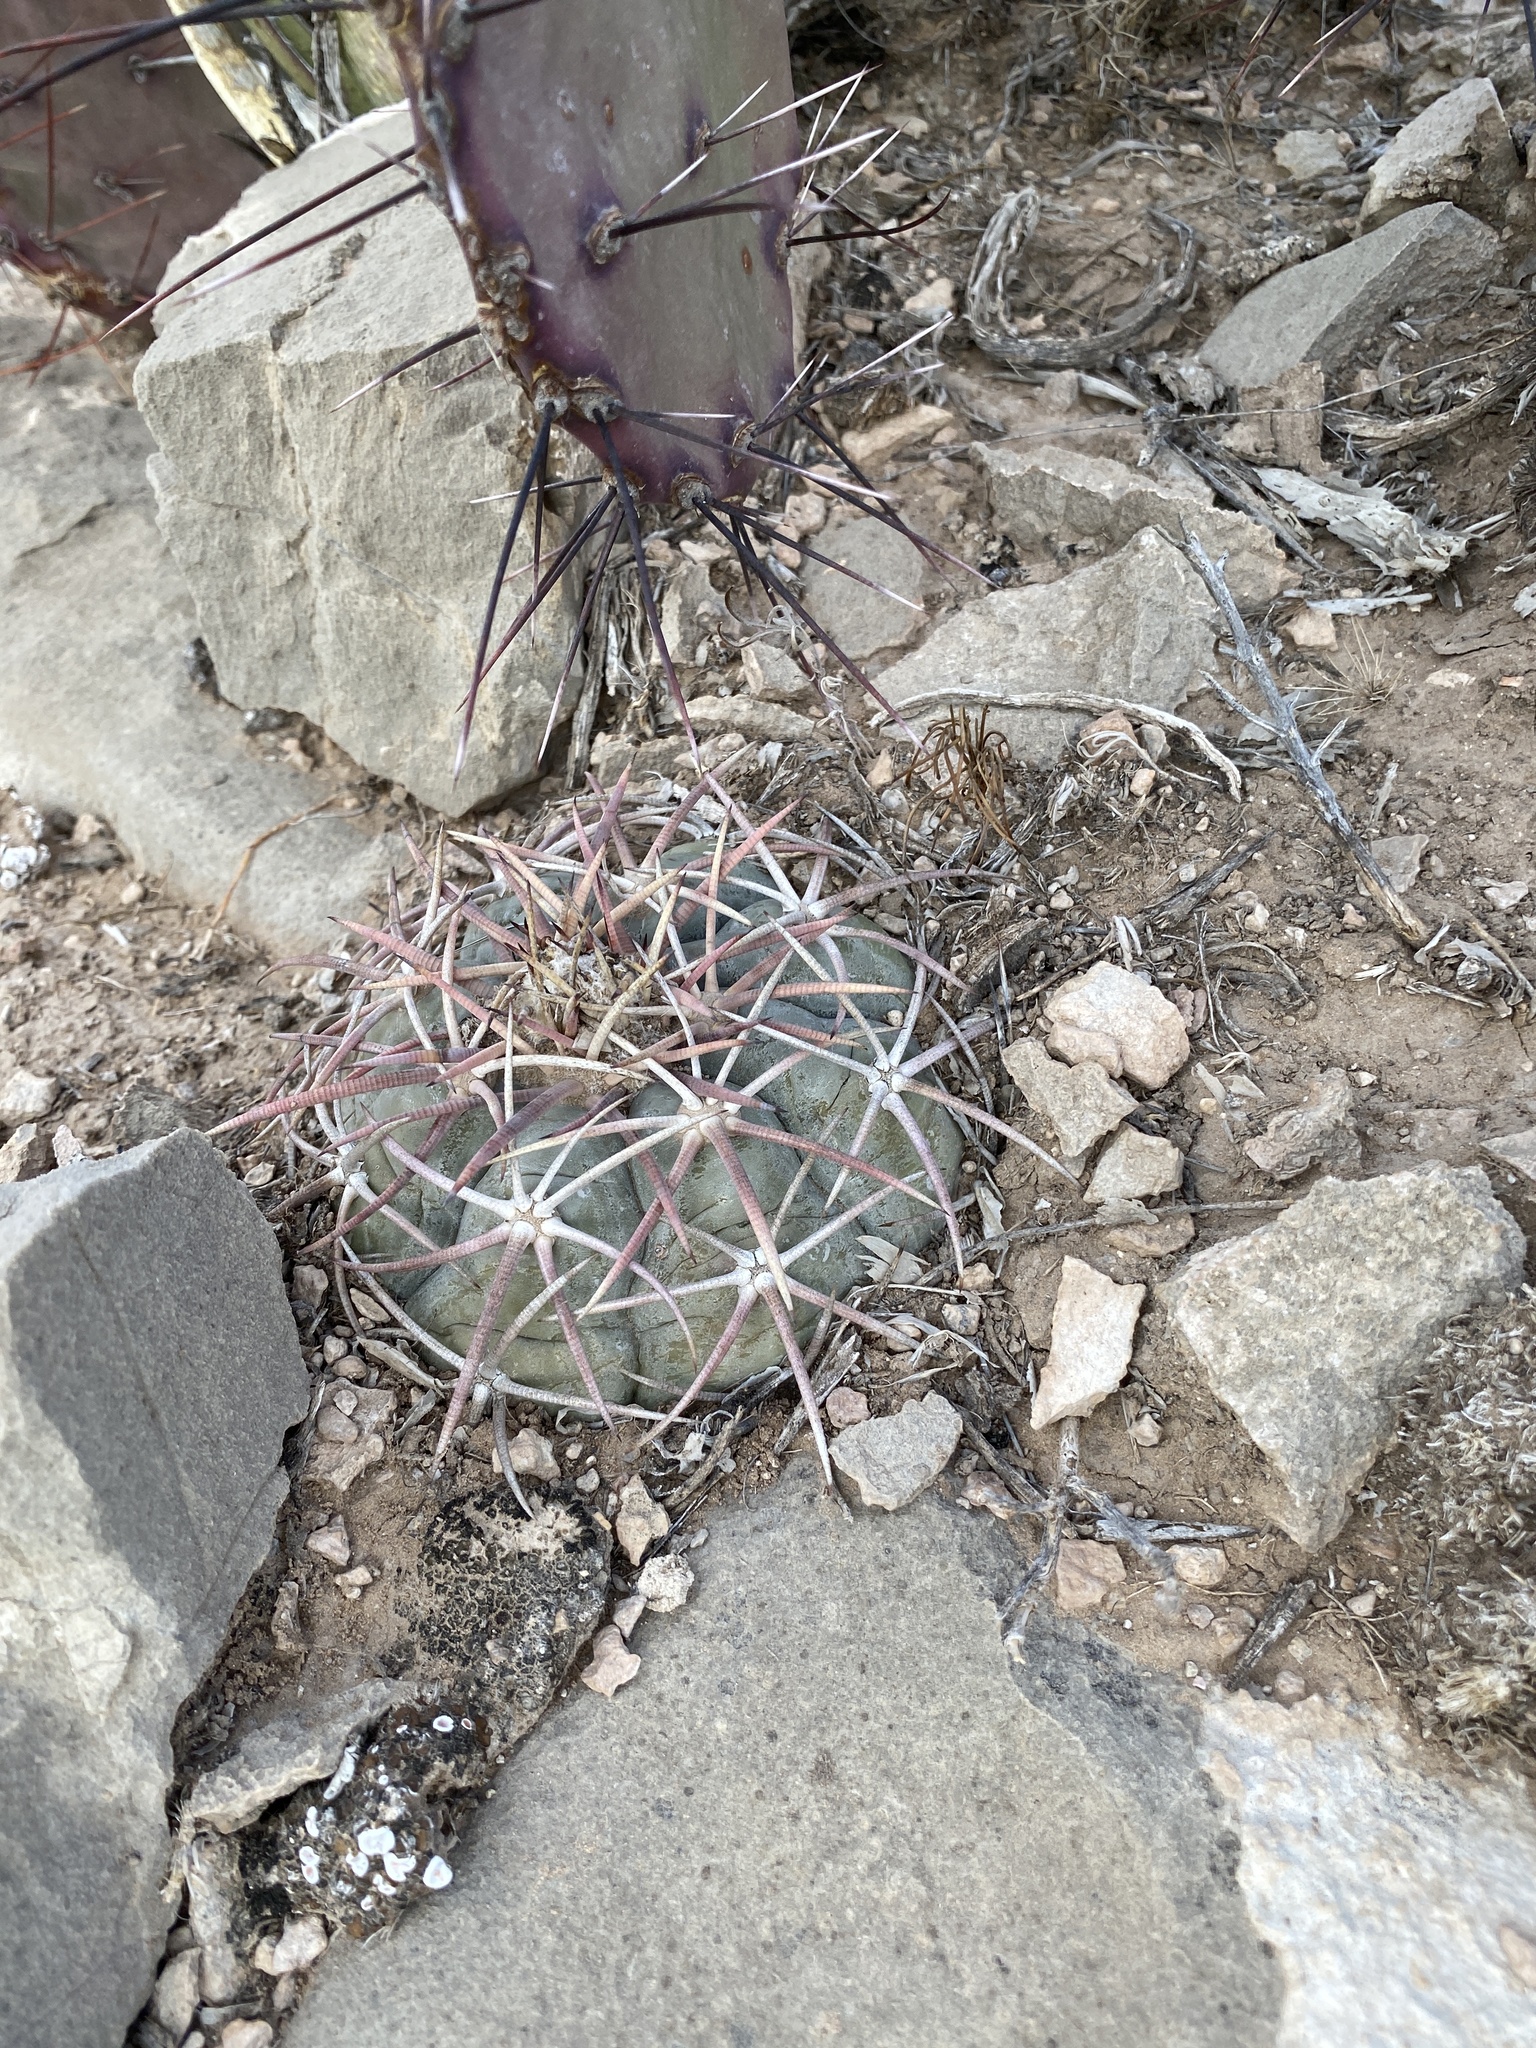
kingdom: Plantae
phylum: Tracheophyta
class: Magnoliopsida
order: Caryophyllales
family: Cactaceae
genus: Echinocactus
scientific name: Echinocactus horizonthalonius
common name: Devilshead
